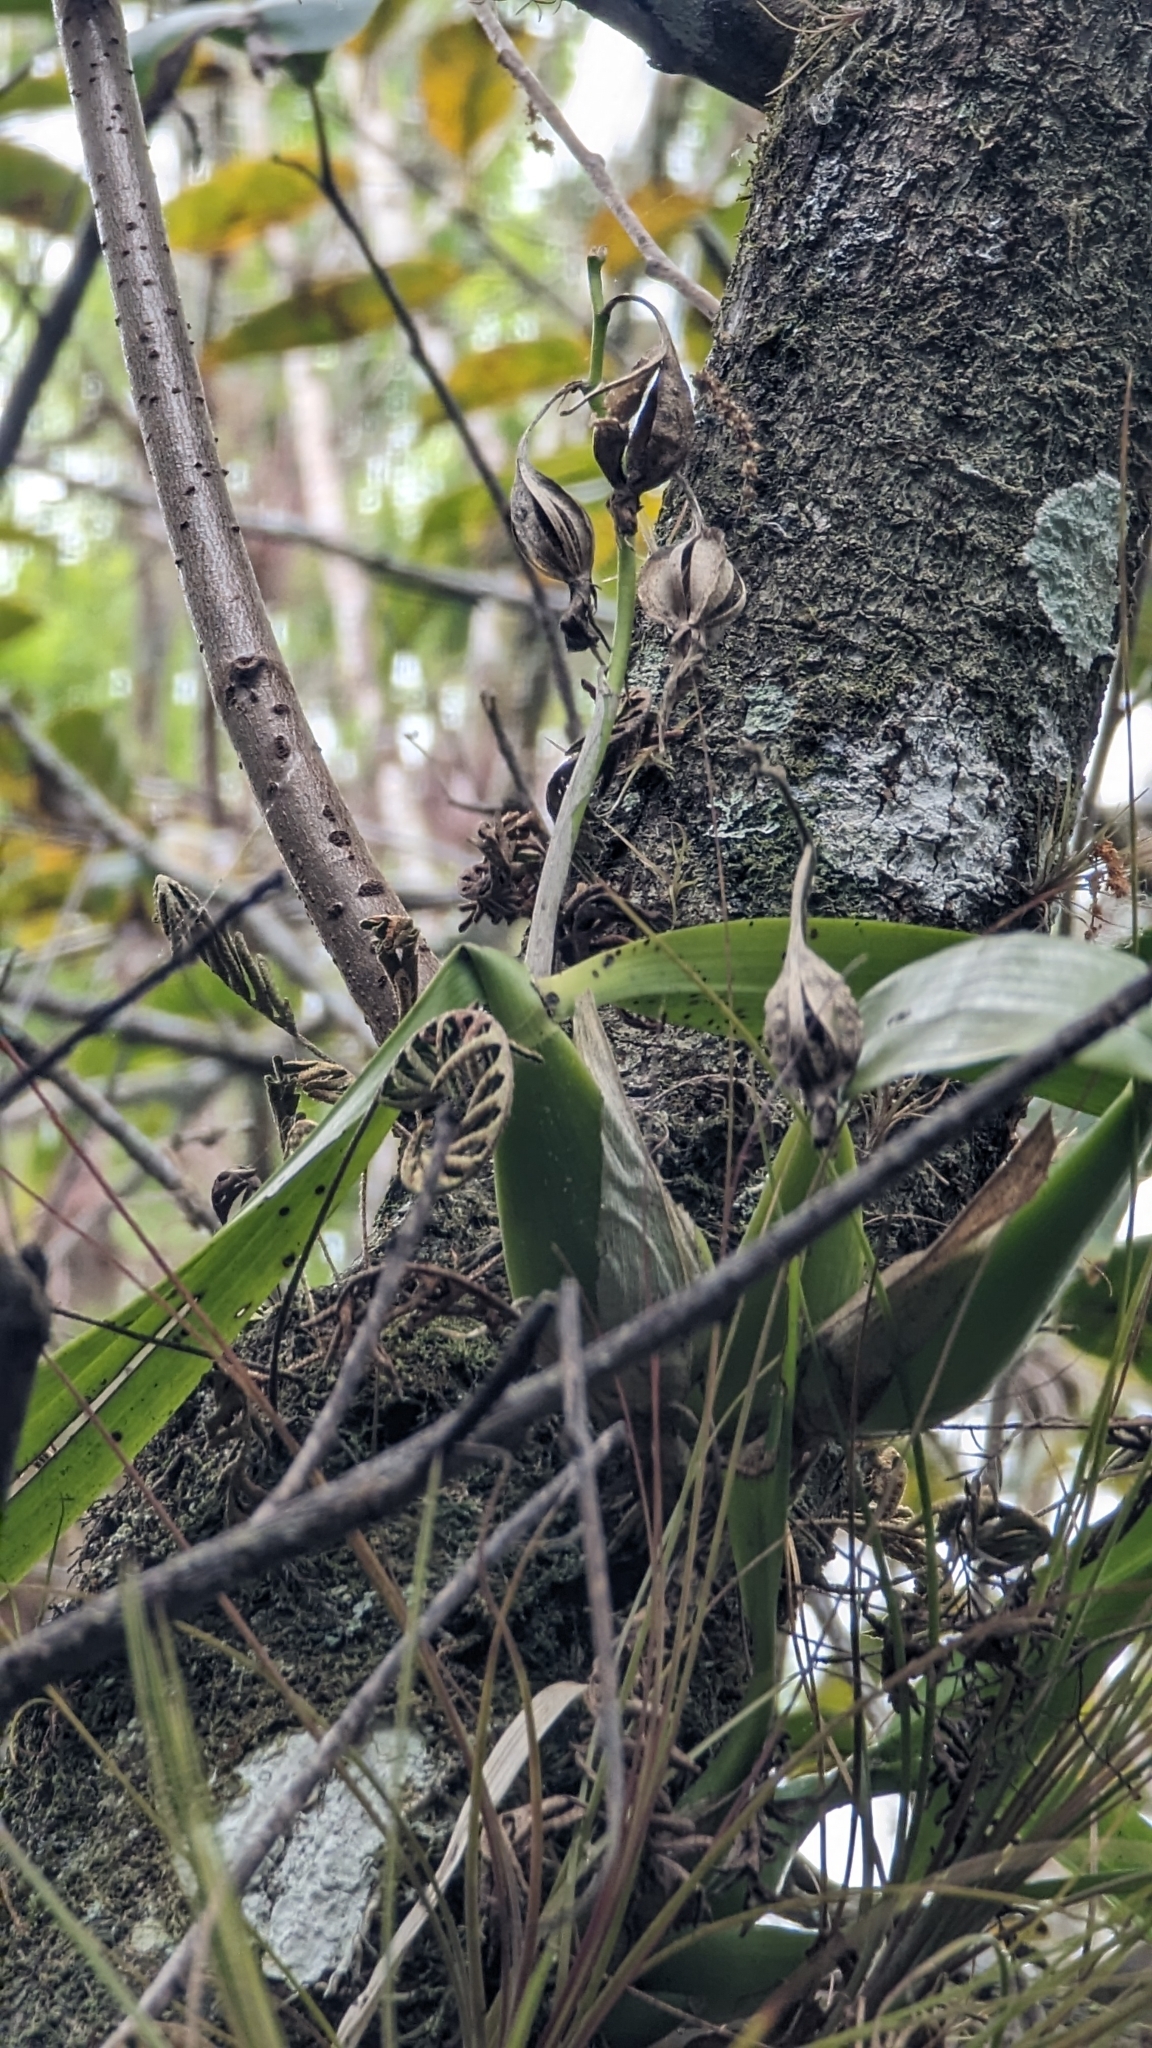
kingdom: Plantae
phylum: Tracheophyta
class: Liliopsida
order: Asparagales
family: Orchidaceae
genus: Prosthechea
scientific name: Prosthechea cochleata
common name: Clamshell orchid
